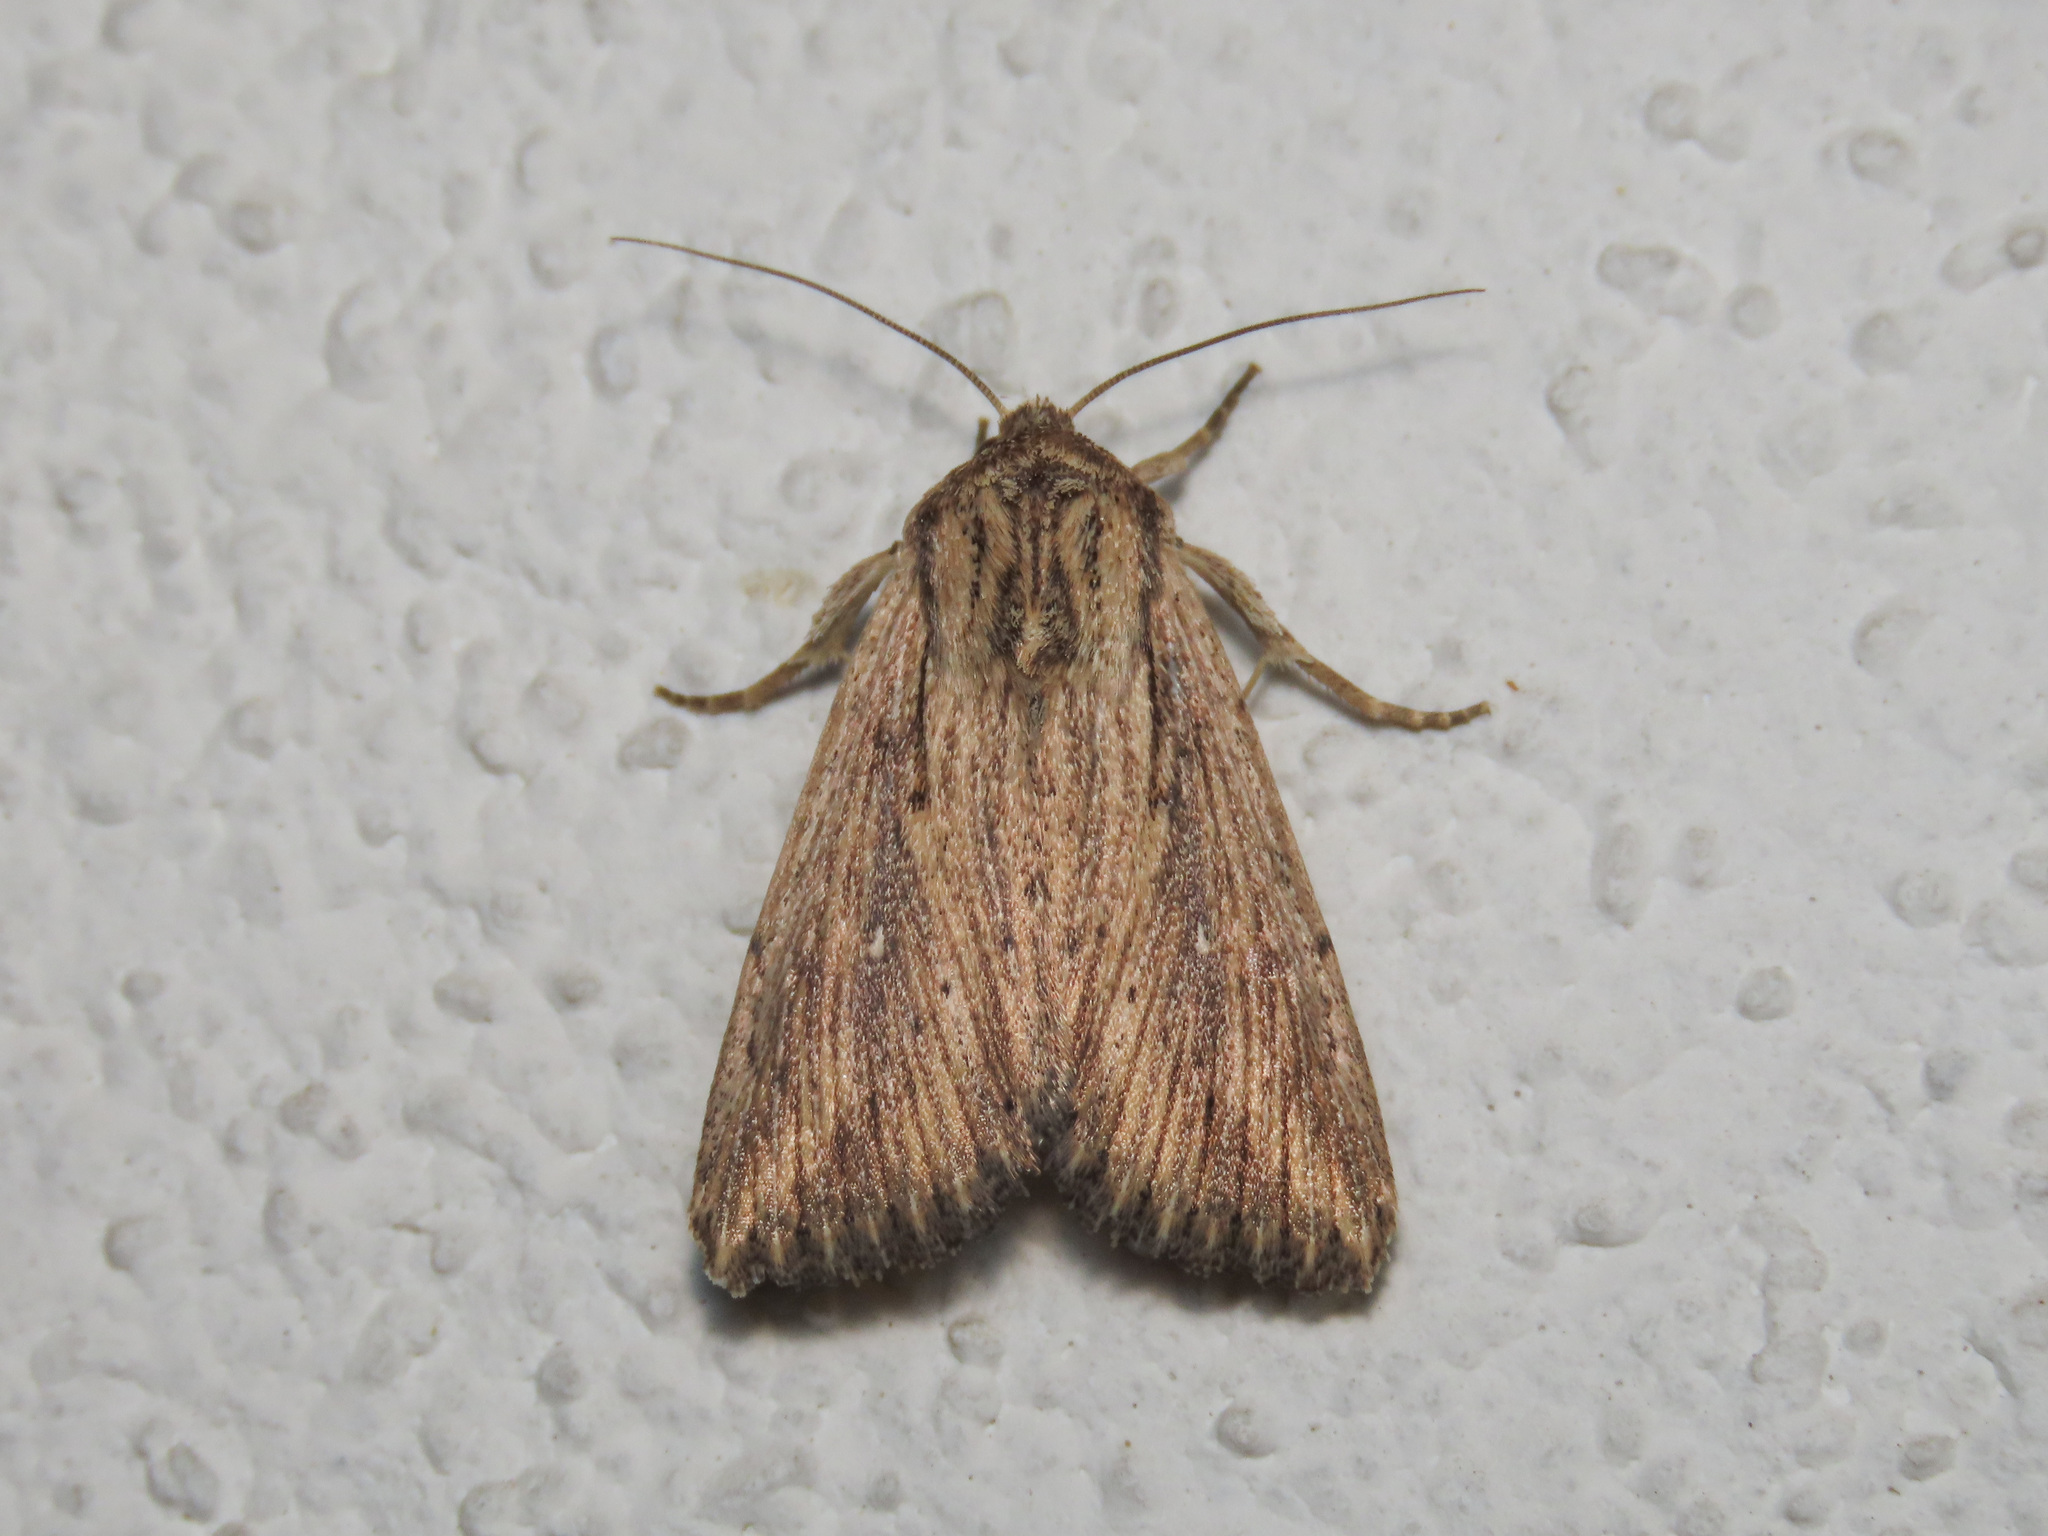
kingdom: Animalia
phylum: Arthropoda
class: Insecta
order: Lepidoptera
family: Noctuidae
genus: Leucania
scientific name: Leucania putrescens
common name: Devonshire wainscot
